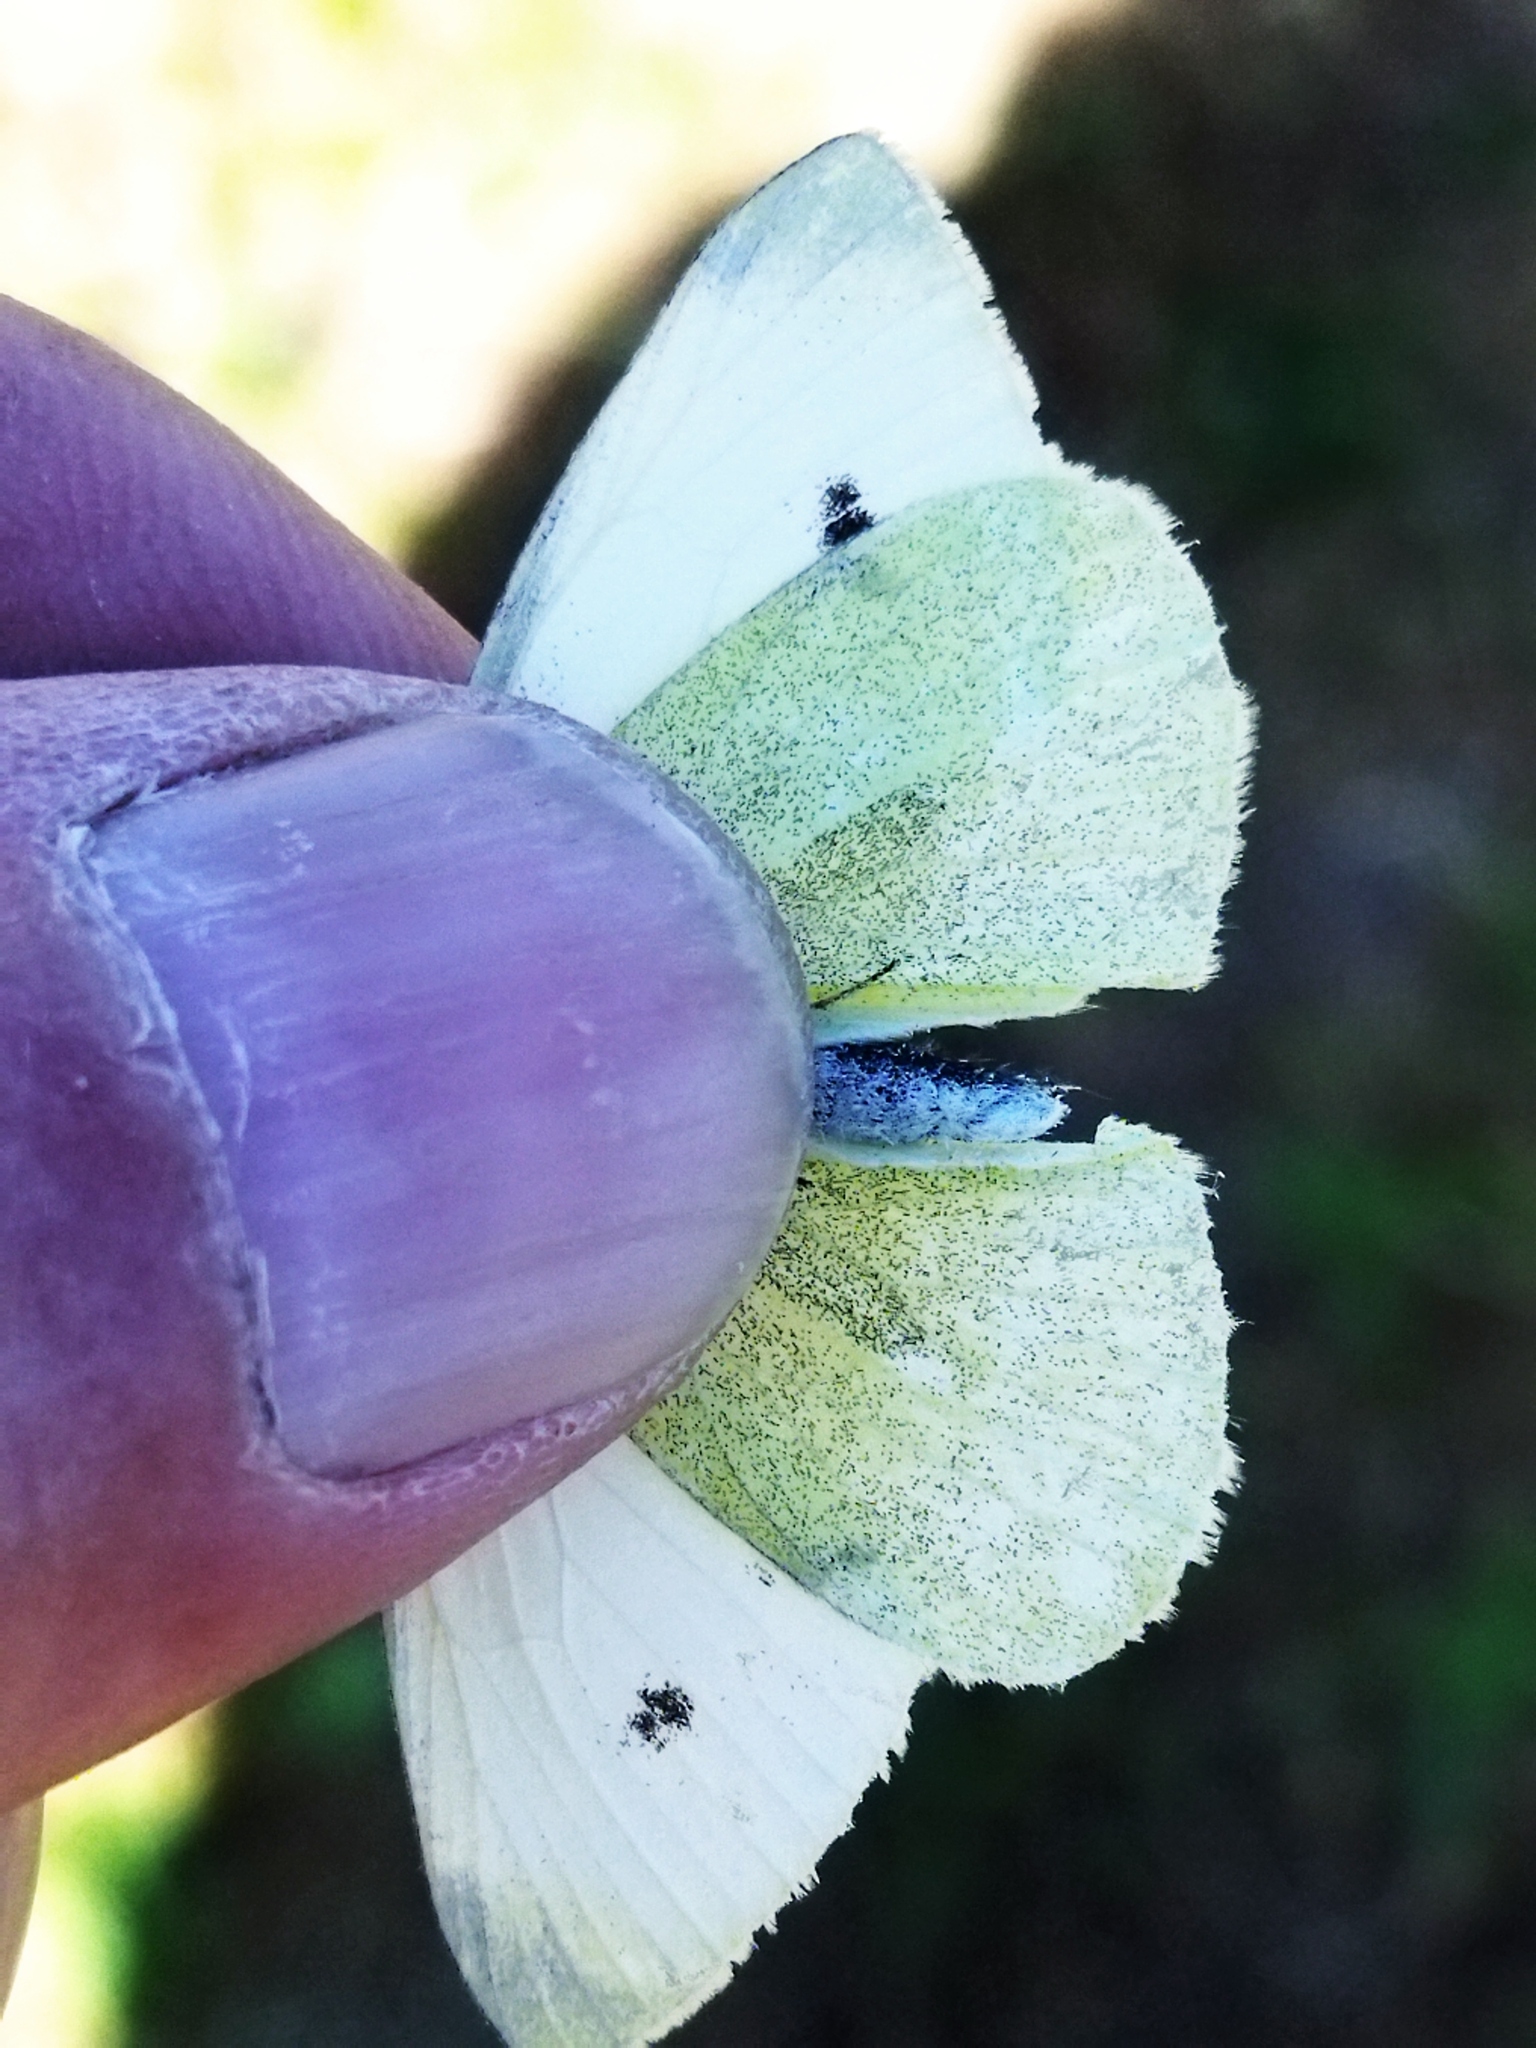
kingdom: Animalia
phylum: Arthropoda
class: Insecta
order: Lepidoptera
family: Pieridae
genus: Pieris
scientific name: Pieris rapae
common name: Small white
